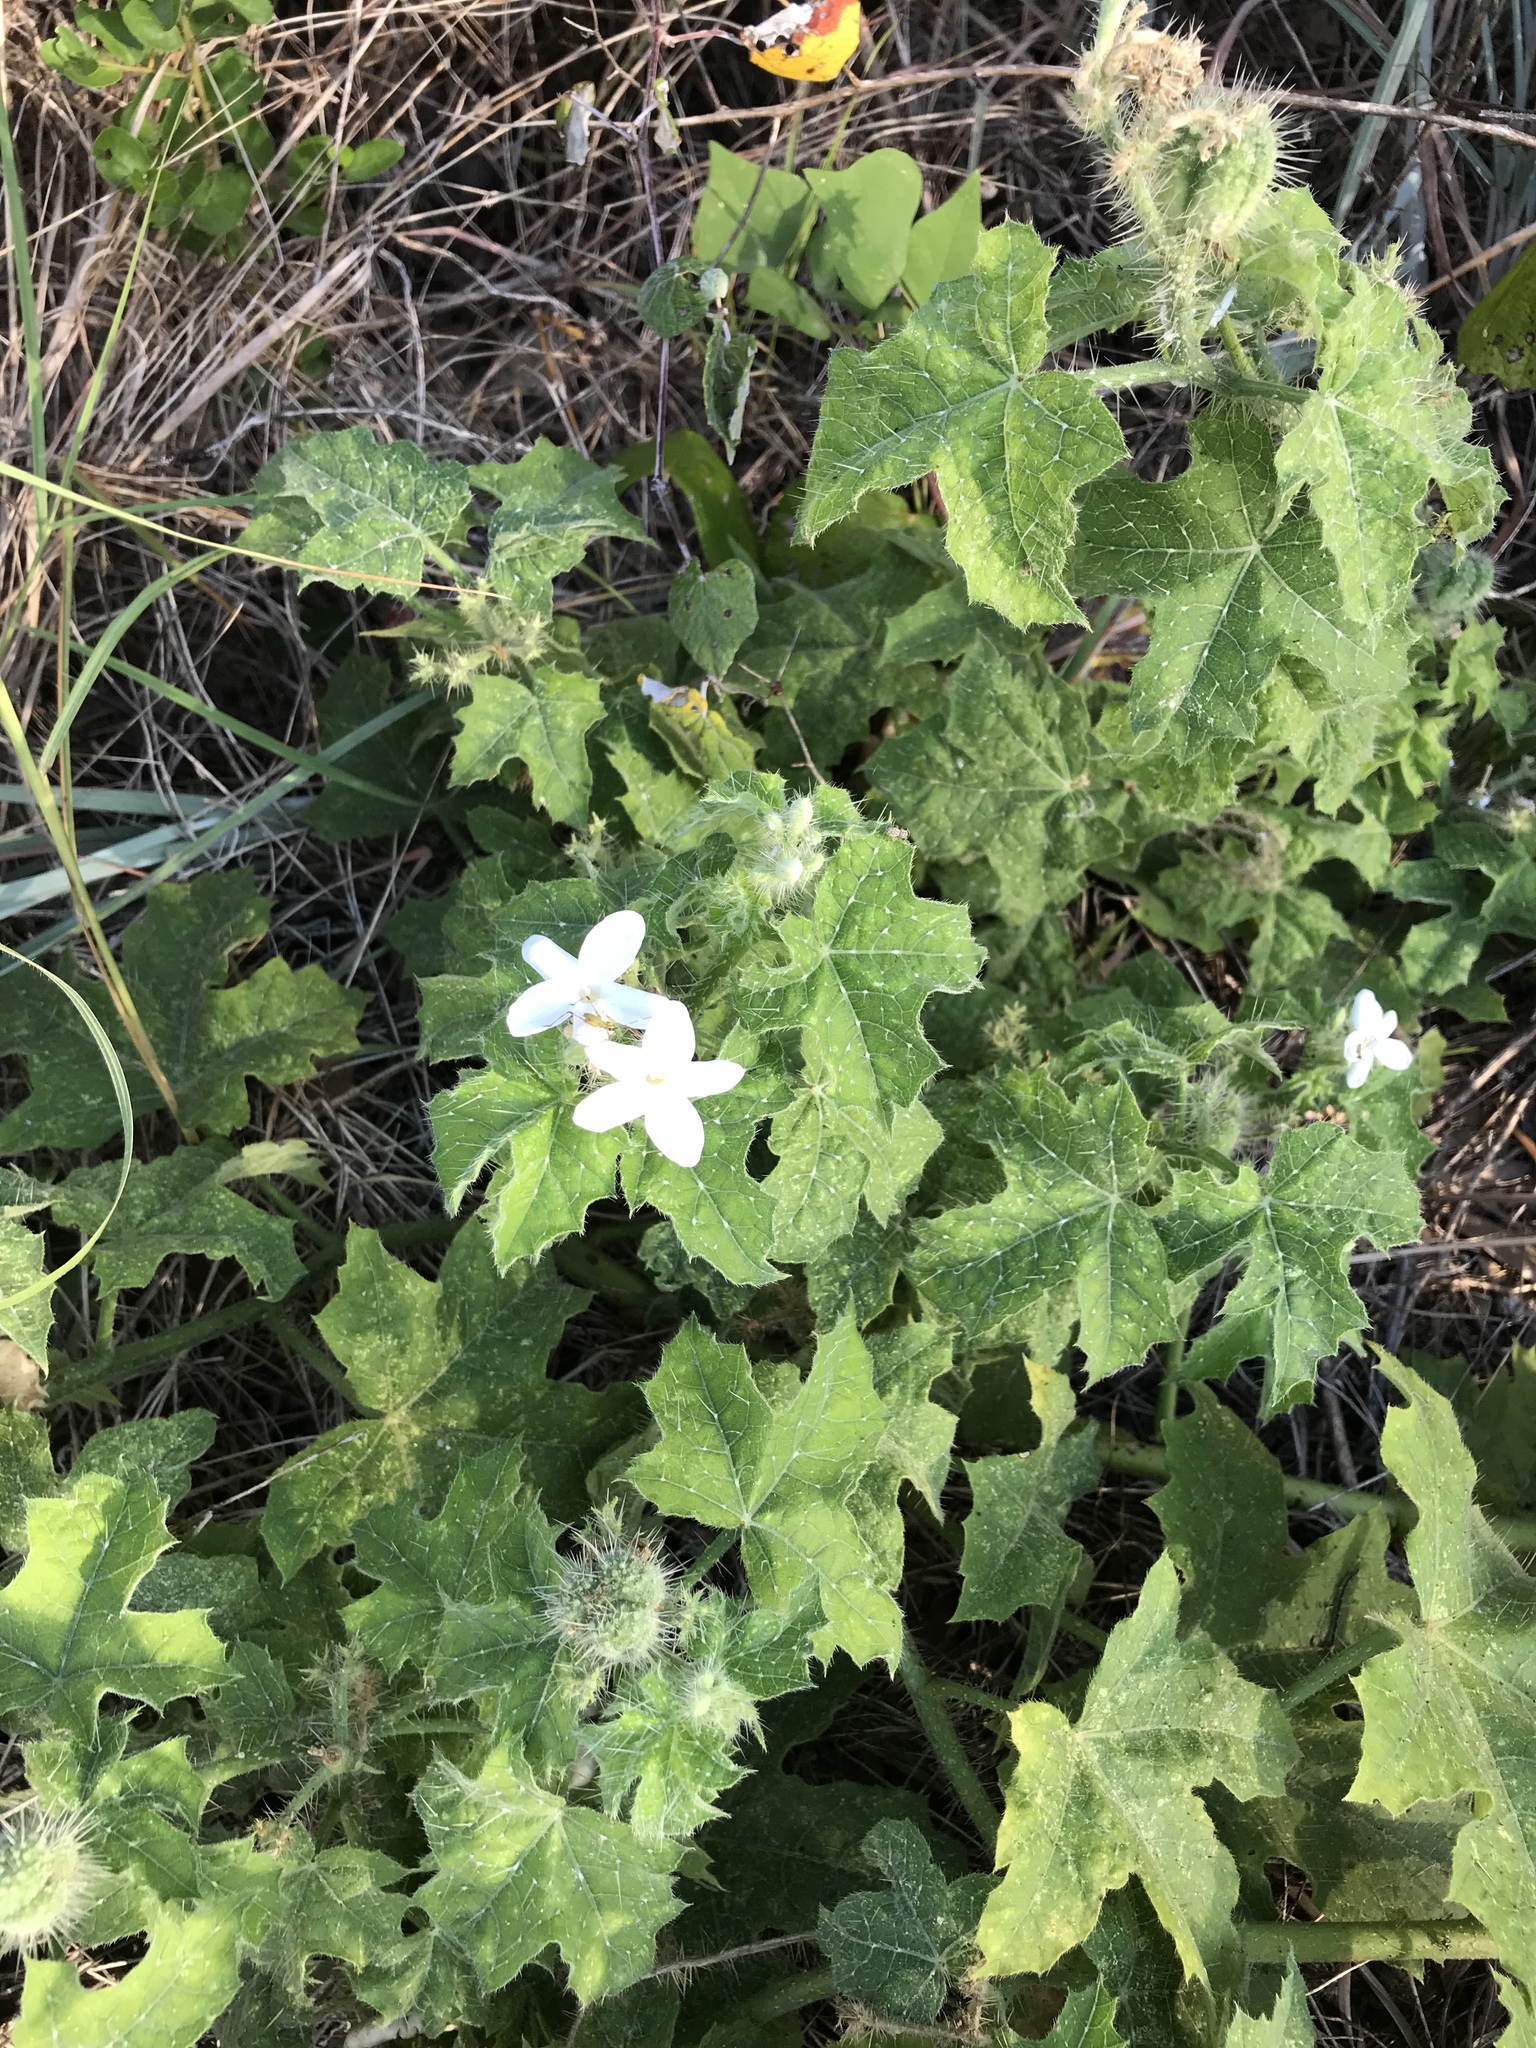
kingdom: Plantae
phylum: Tracheophyta
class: Magnoliopsida
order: Malpighiales
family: Euphorbiaceae
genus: Cnidoscolus
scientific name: Cnidoscolus texanus
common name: Texas bull-nettle
